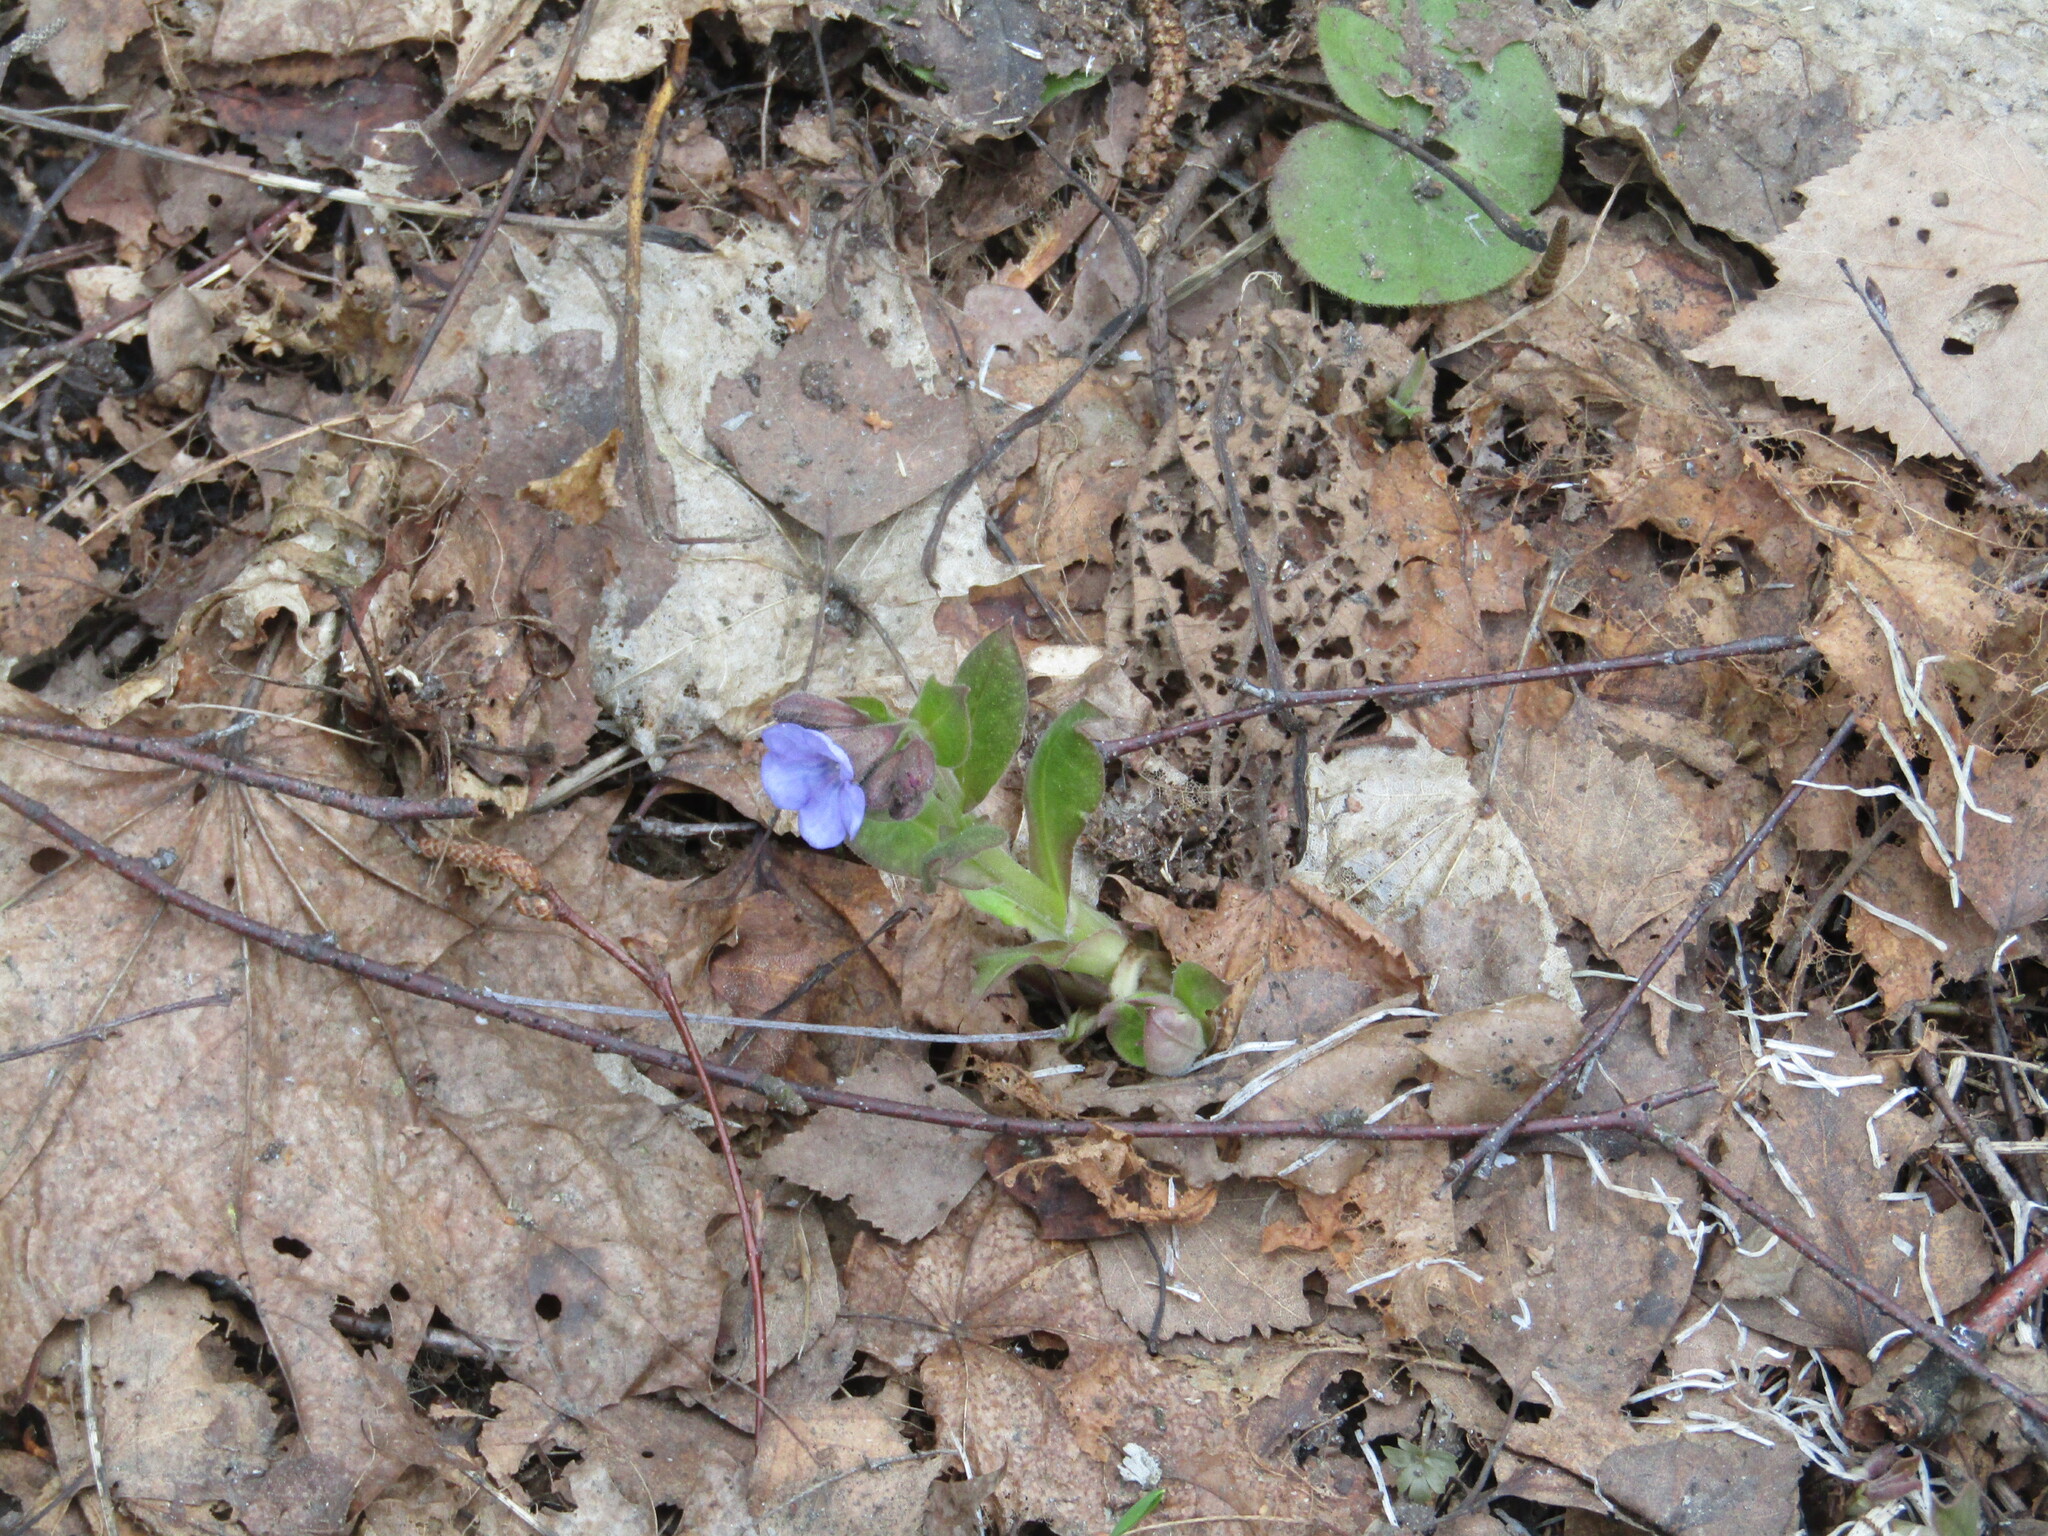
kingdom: Plantae
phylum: Tracheophyta
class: Magnoliopsida
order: Boraginales
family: Boraginaceae
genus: Pulmonaria
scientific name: Pulmonaria obscura
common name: Suffolk lungwort
